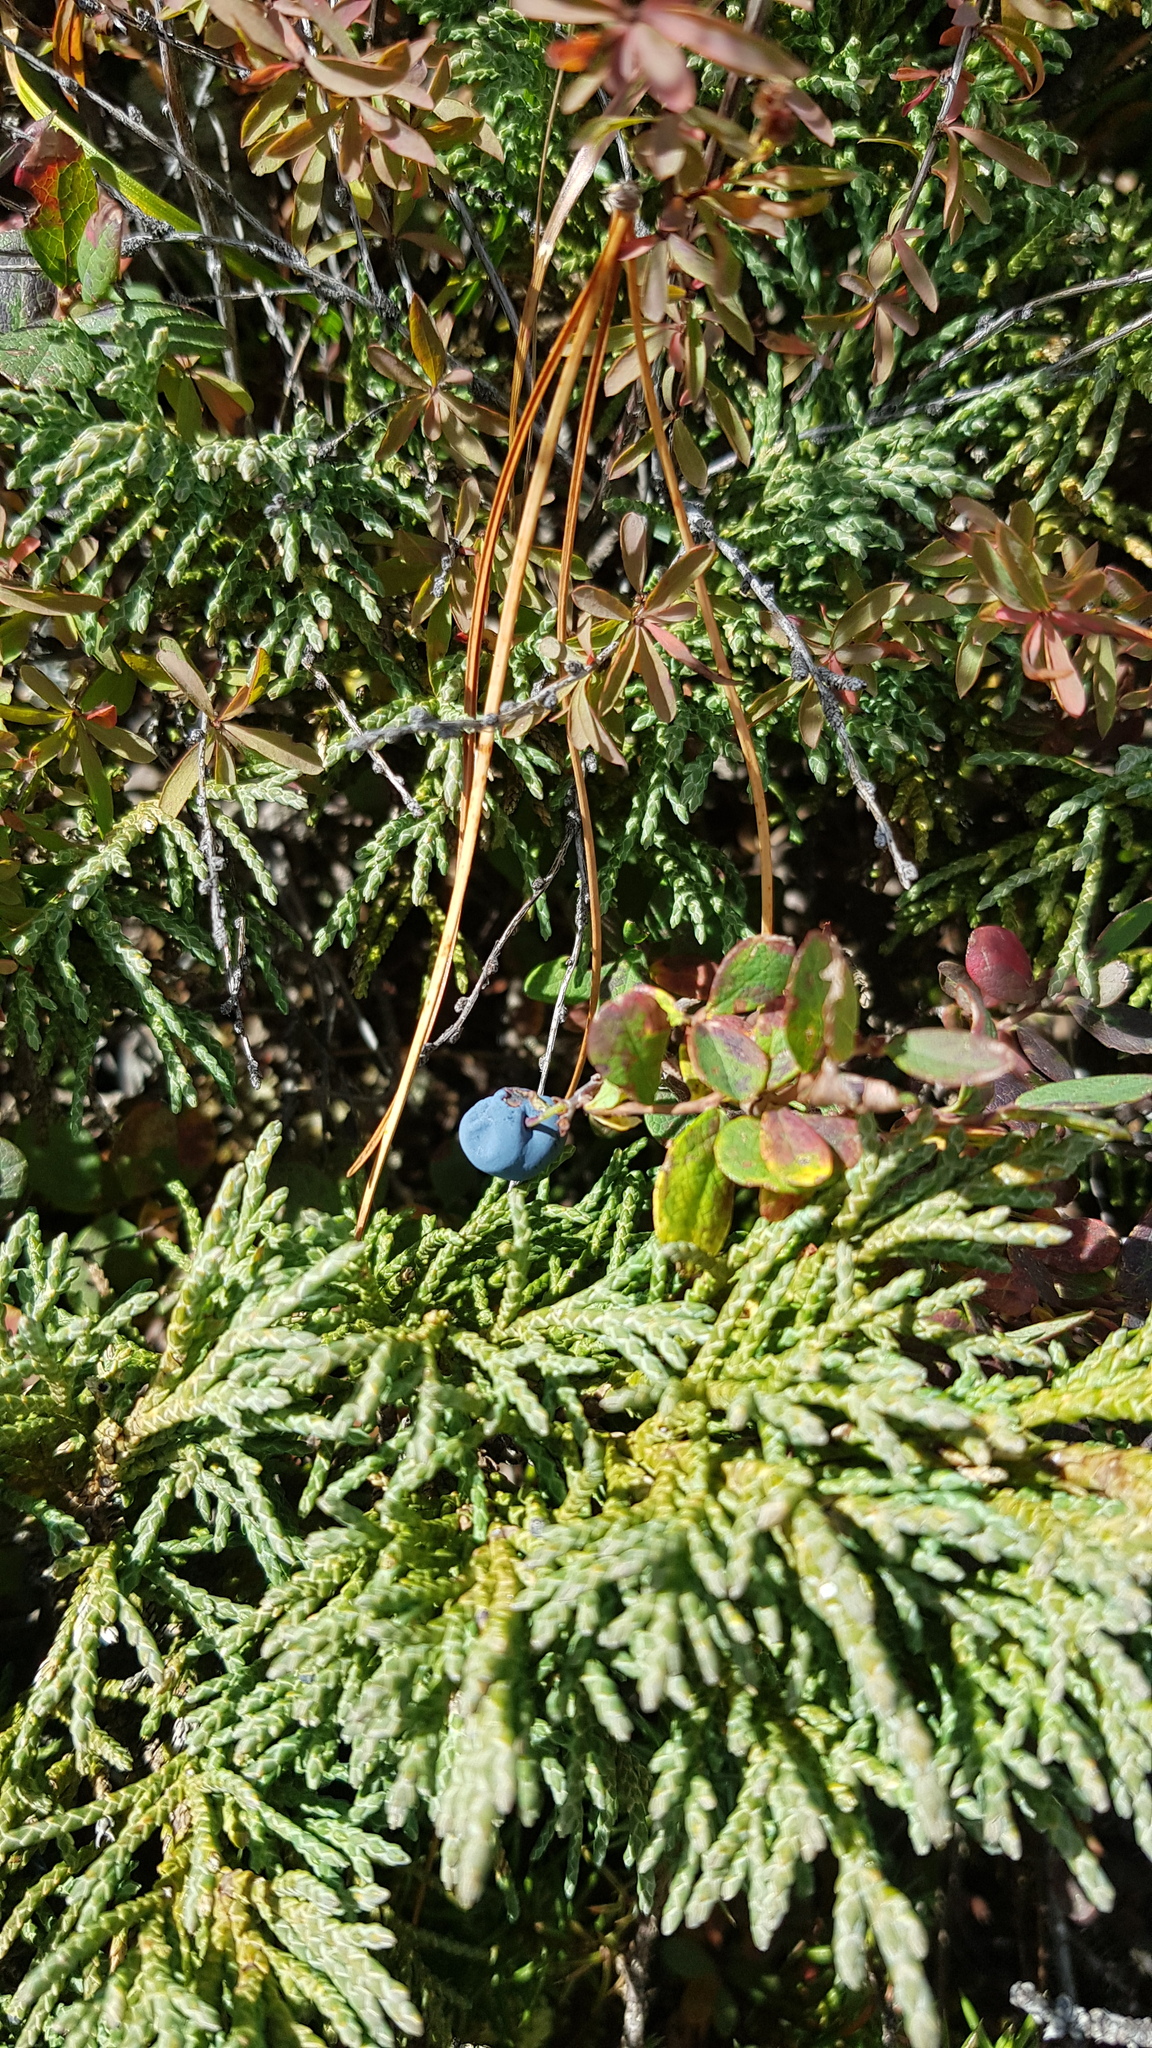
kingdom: Plantae
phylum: Tracheophyta
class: Magnoliopsida
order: Ericales
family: Ericaceae
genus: Vaccinium
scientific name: Vaccinium uliginosum
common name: Bog bilberry
